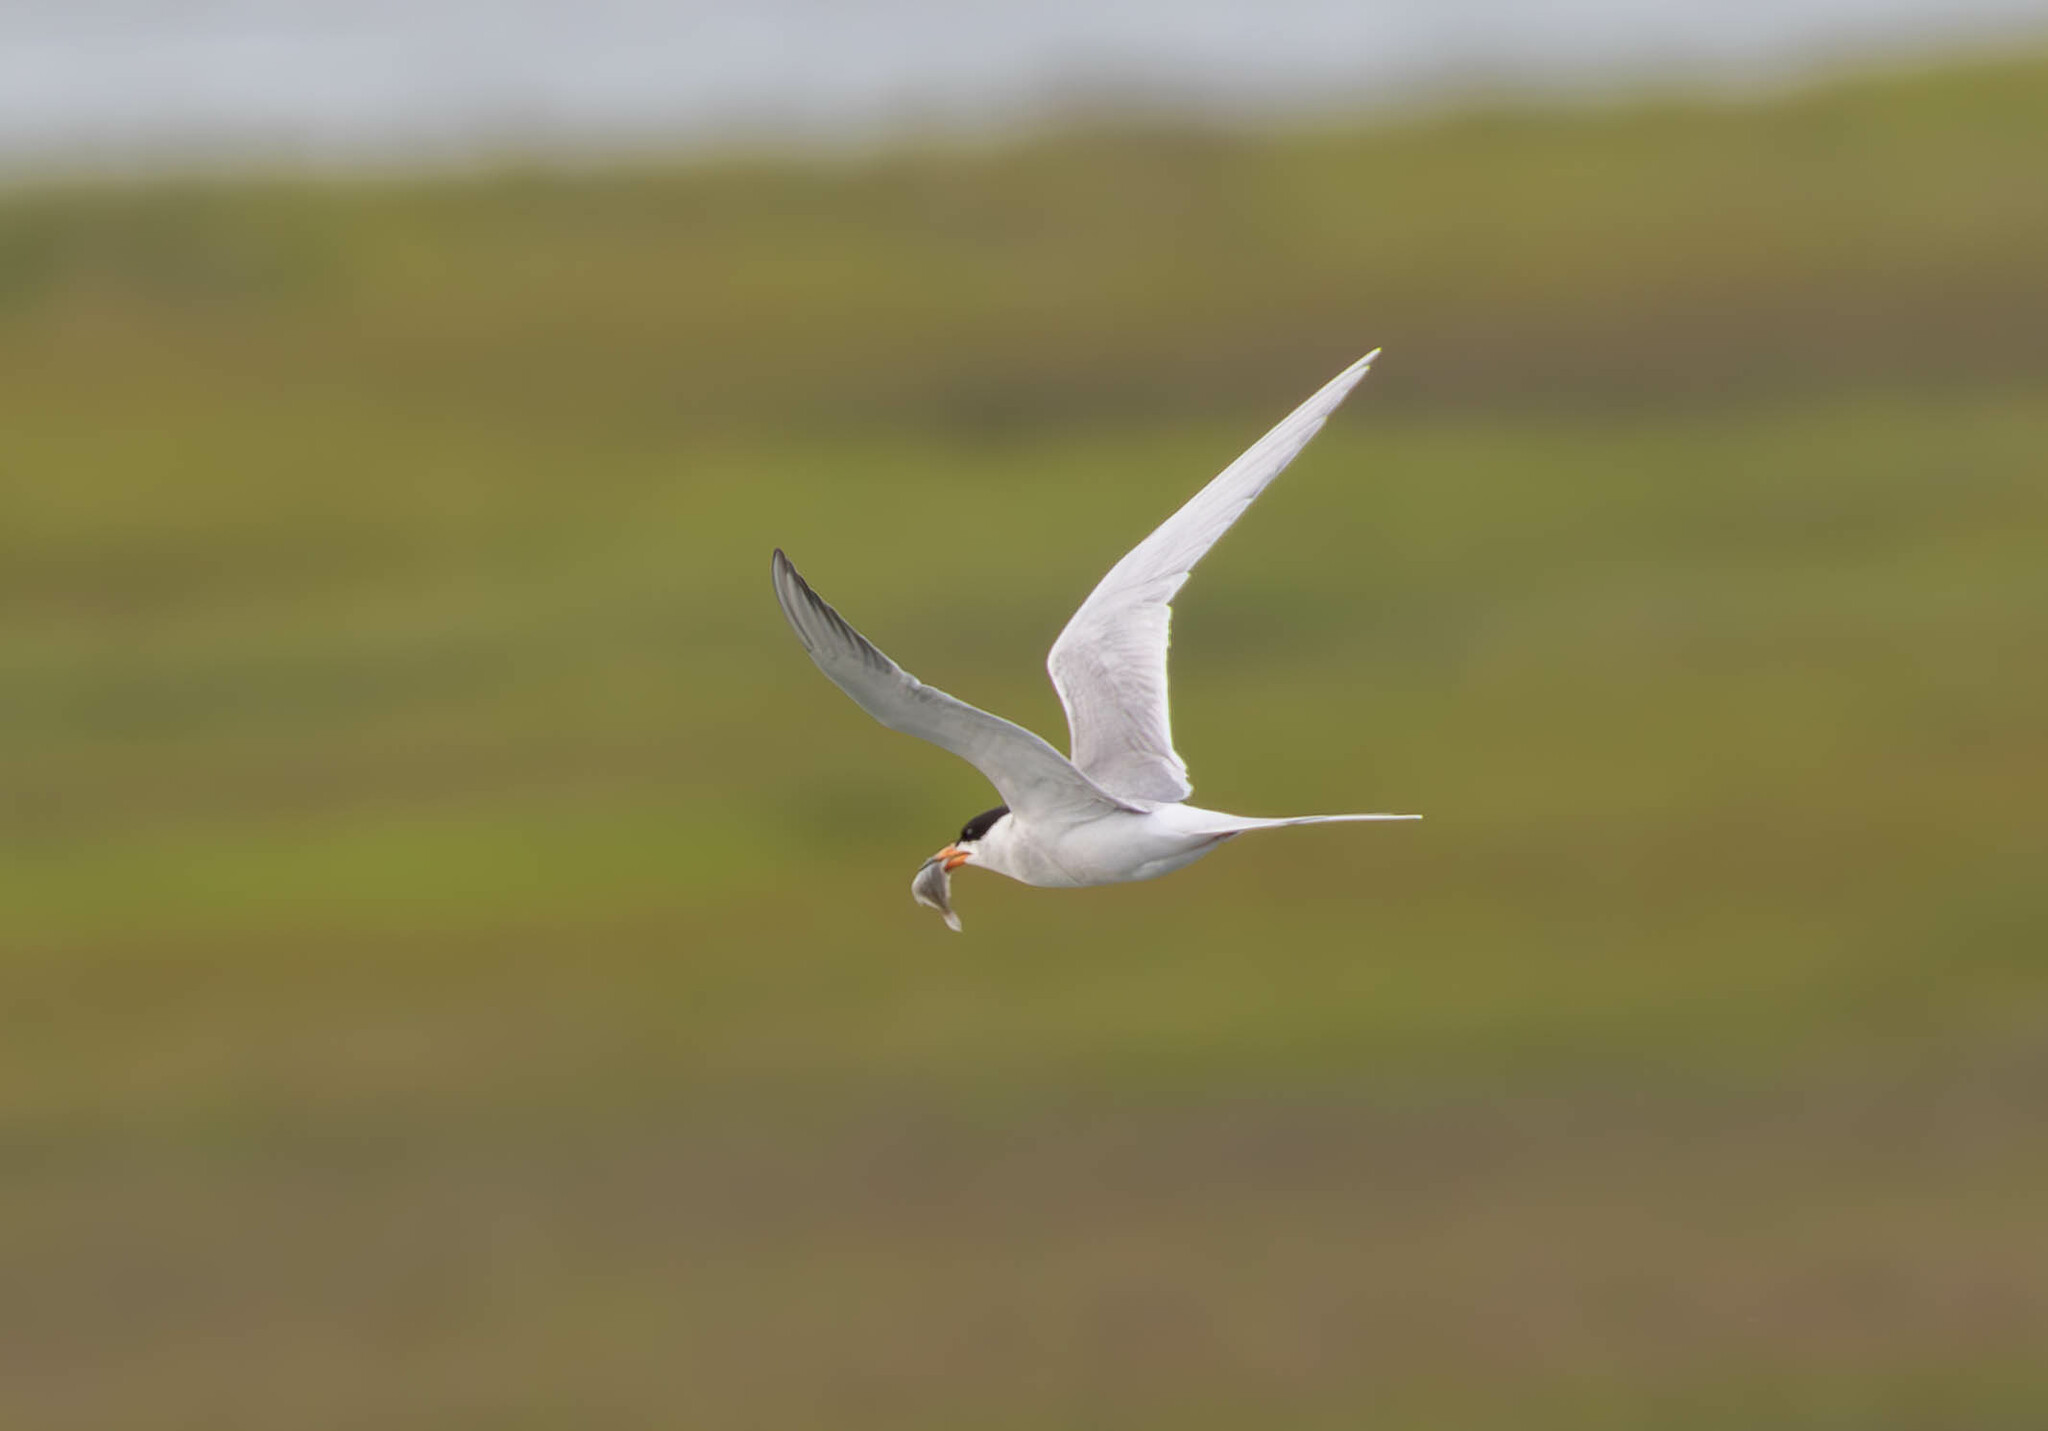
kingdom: Animalia
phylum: Chordata
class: Aves
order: Charadriiformes
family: Laridae
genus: Sterna
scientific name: Sterna forsteri
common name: Forster's tern
